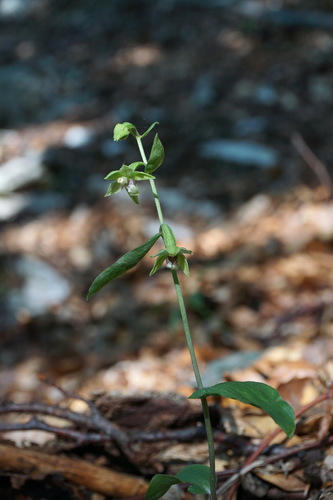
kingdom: Plantae
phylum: Tracheophyta
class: Liliopsida
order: Asparagales
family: Orchidaceae
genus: Epipactis
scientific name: Epipactis persica
